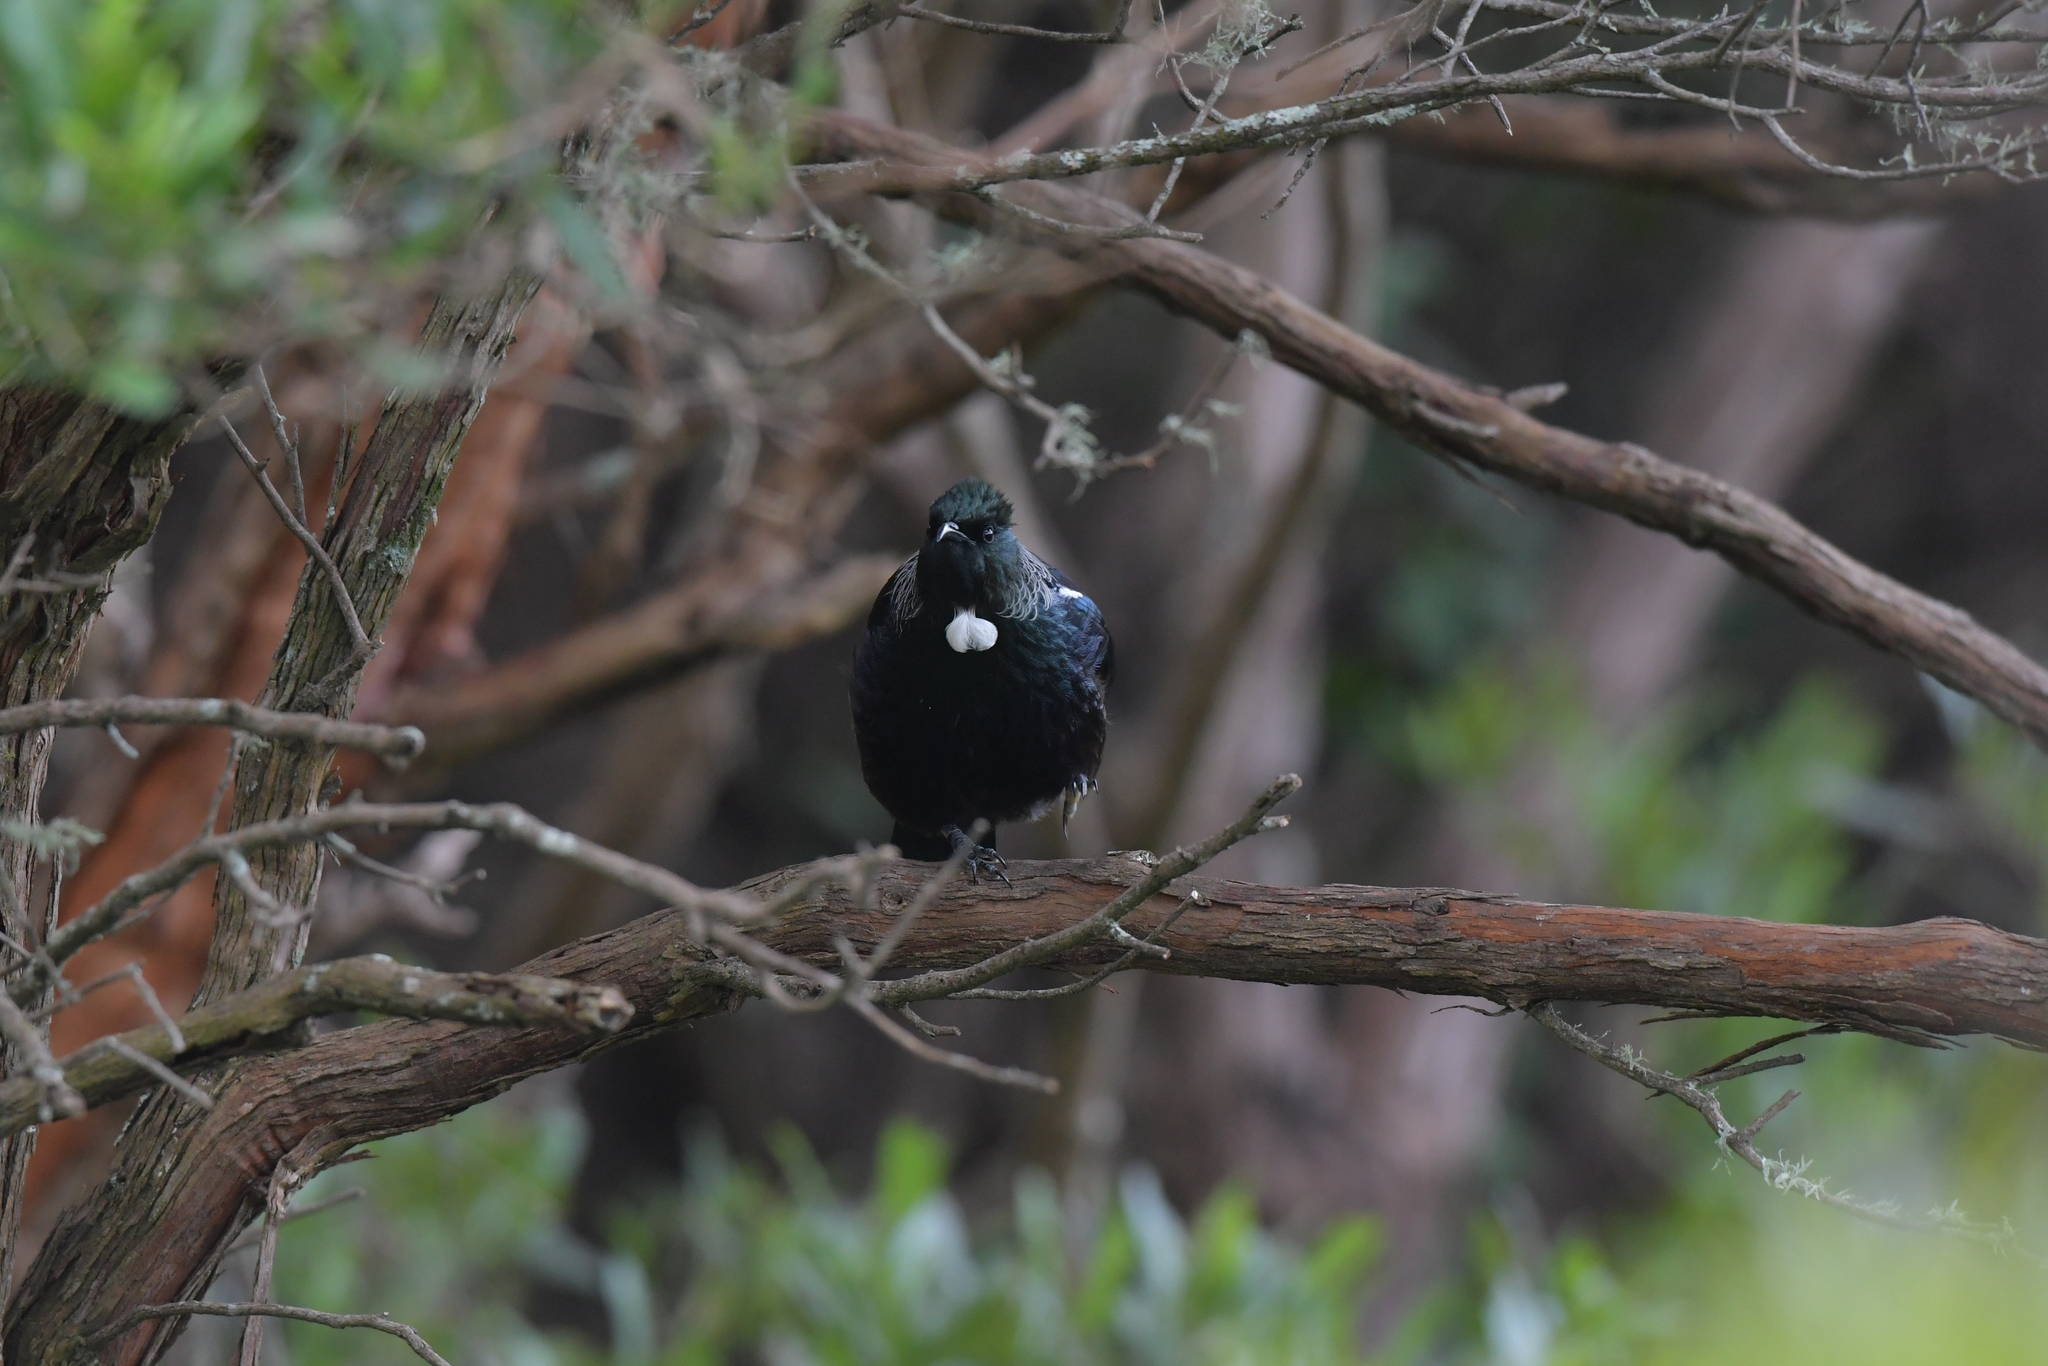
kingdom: Animalia
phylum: Chordata
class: Aves
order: Passeriformes
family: Meliphagidae
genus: Prosthemadera
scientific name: Prosthemadera novaeseelandiae
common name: Tui
